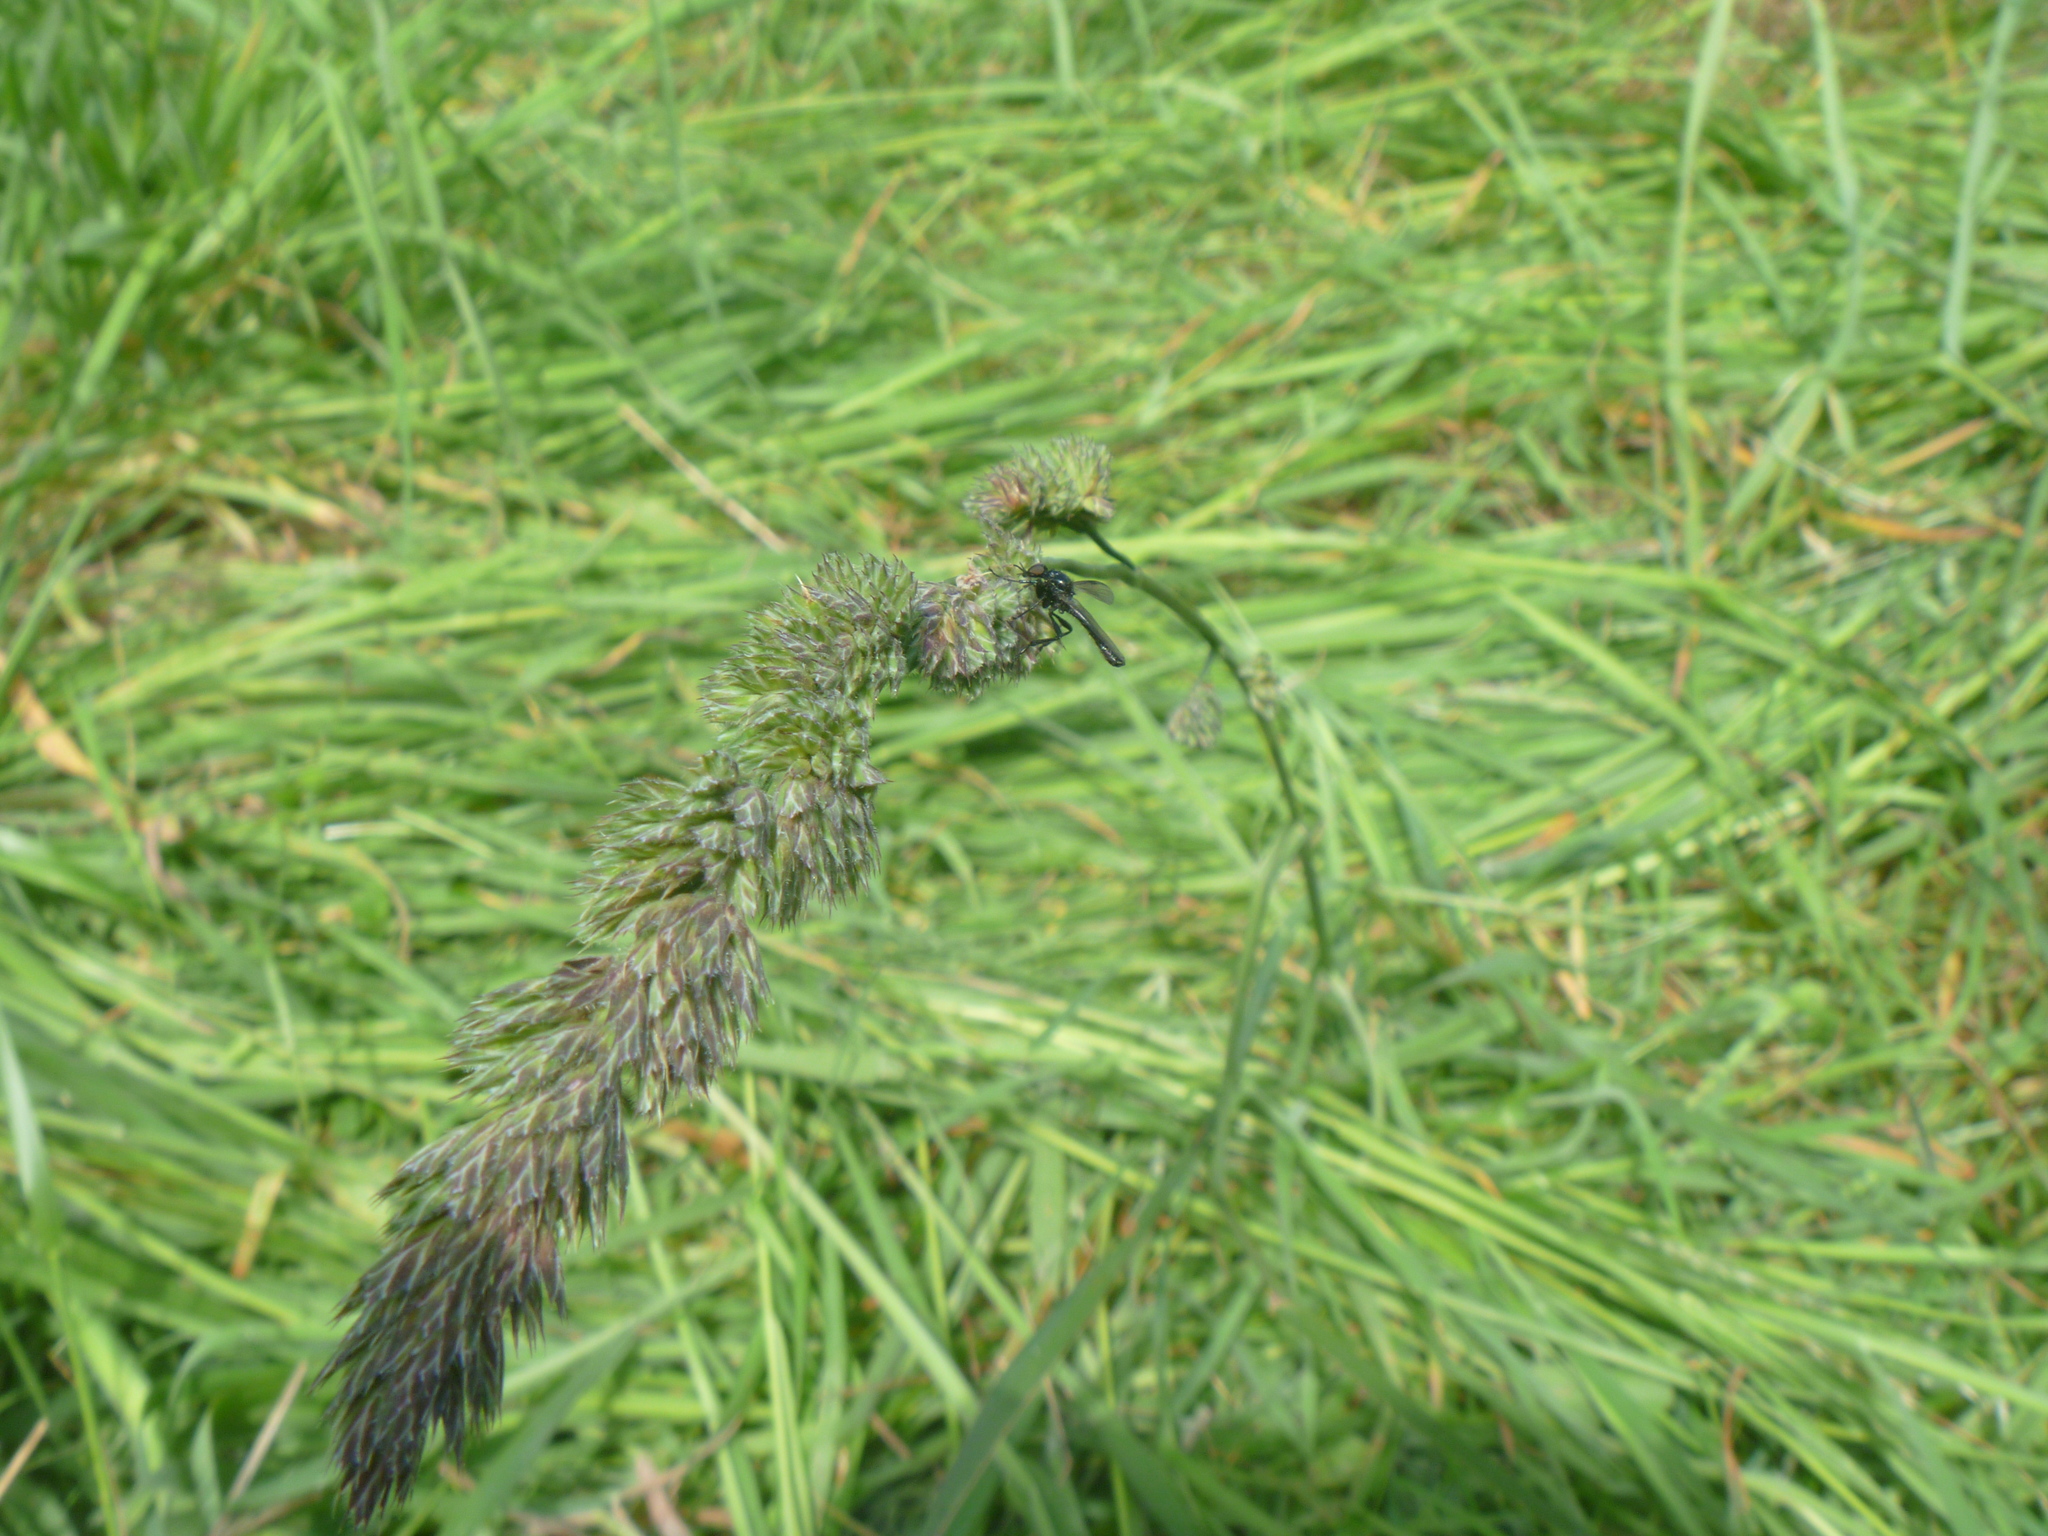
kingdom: Animalia
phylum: Arthropoda
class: Insecta
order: Diptera
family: Bibionidae
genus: Dilophus
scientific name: Dilophus nigrostigma
